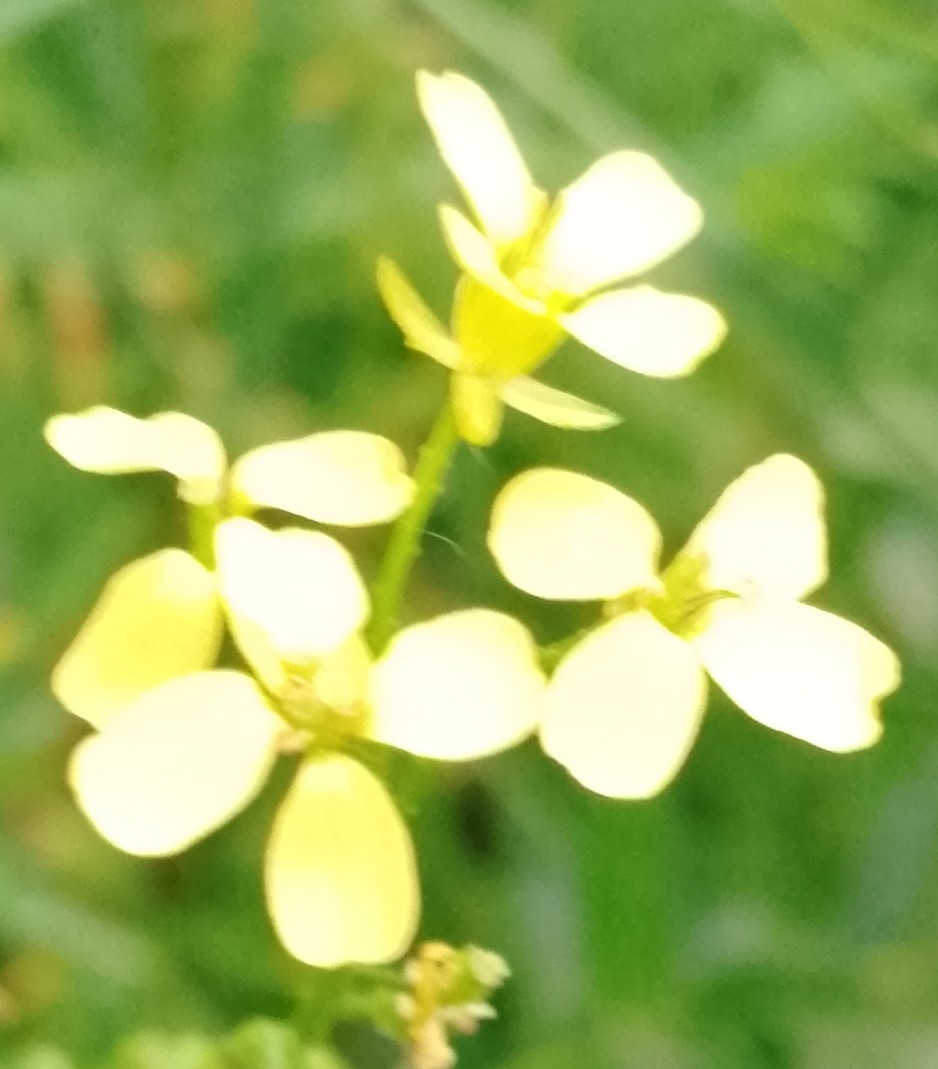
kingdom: Plantae
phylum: Tracheophyta
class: Magnoliopsida
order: Brassicales
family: Brassicaceae
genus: Bunias
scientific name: Bunias orientalis
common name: Warty-cabbage
